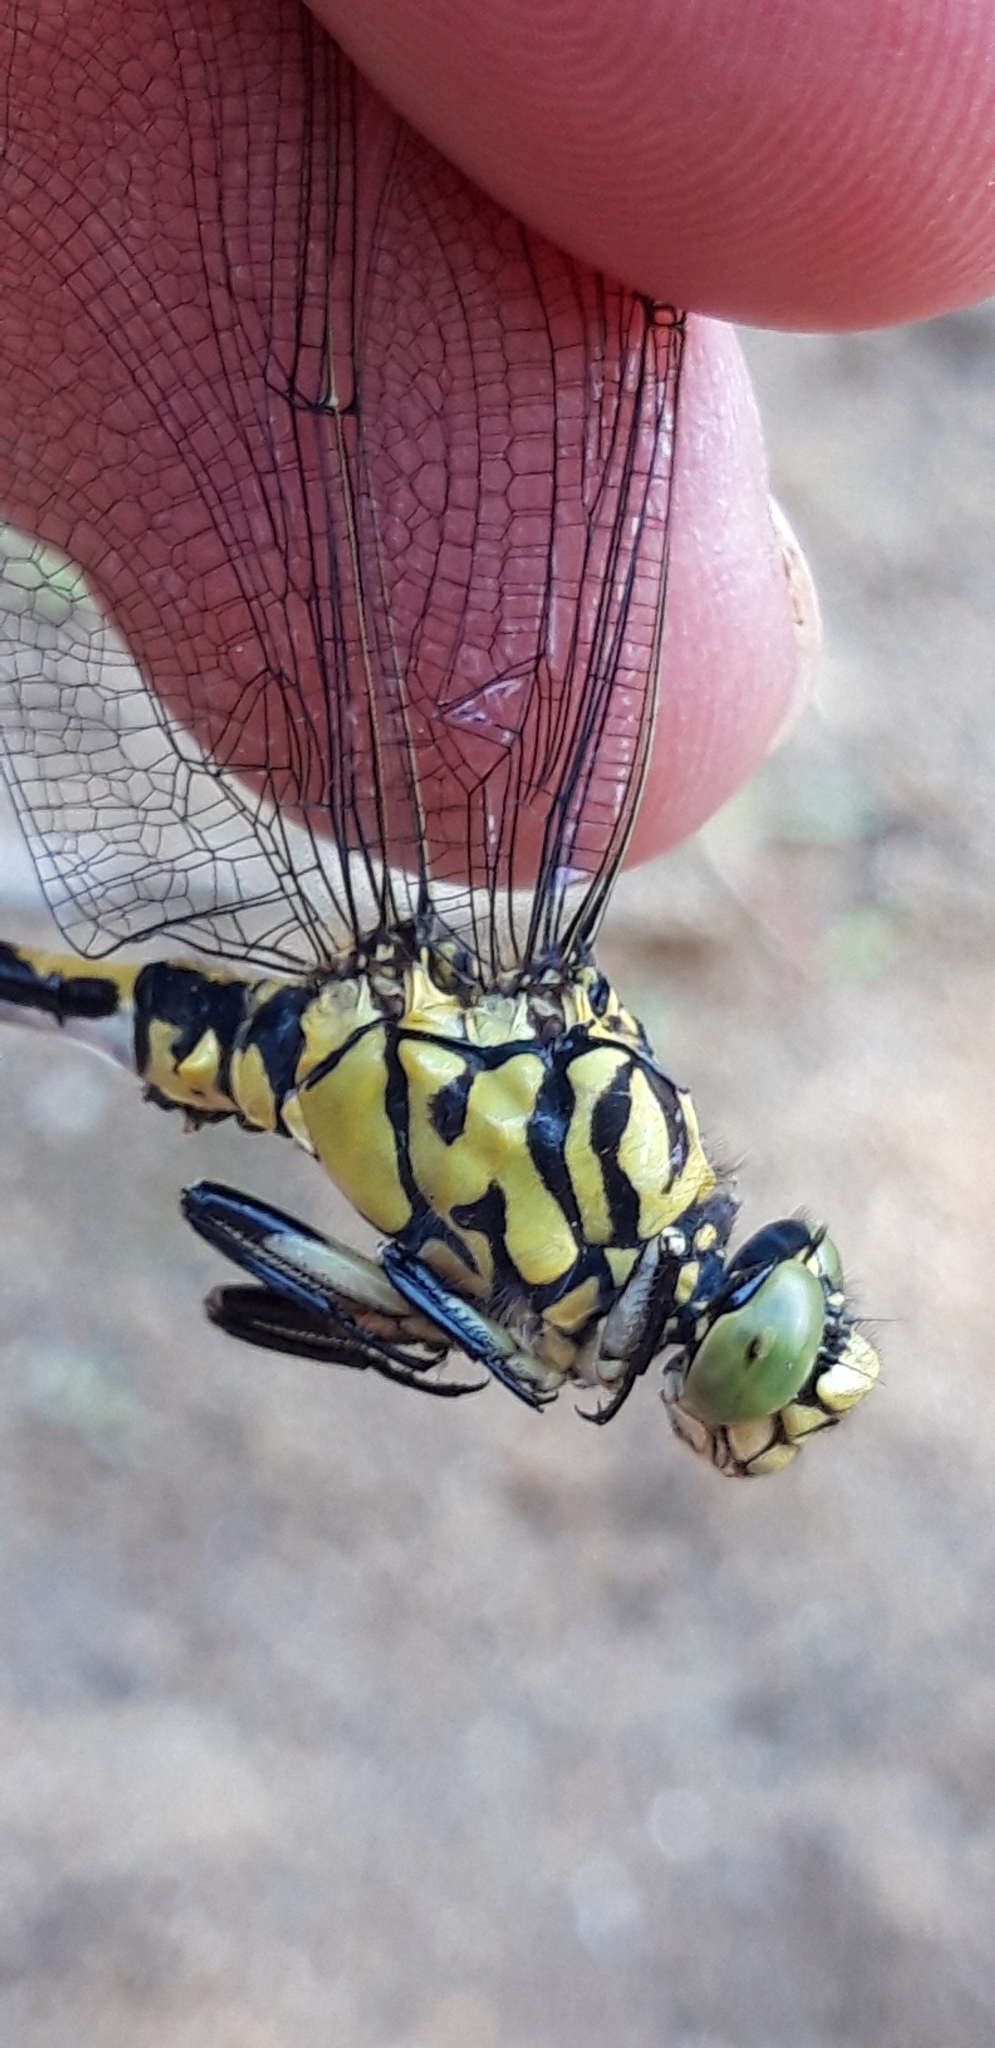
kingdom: Animalia
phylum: Arthropoda
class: Insecta
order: Odonata
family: Gomphidae
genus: Onychogomphus
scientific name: Onychogomphus forcipatus
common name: Small pincertail
